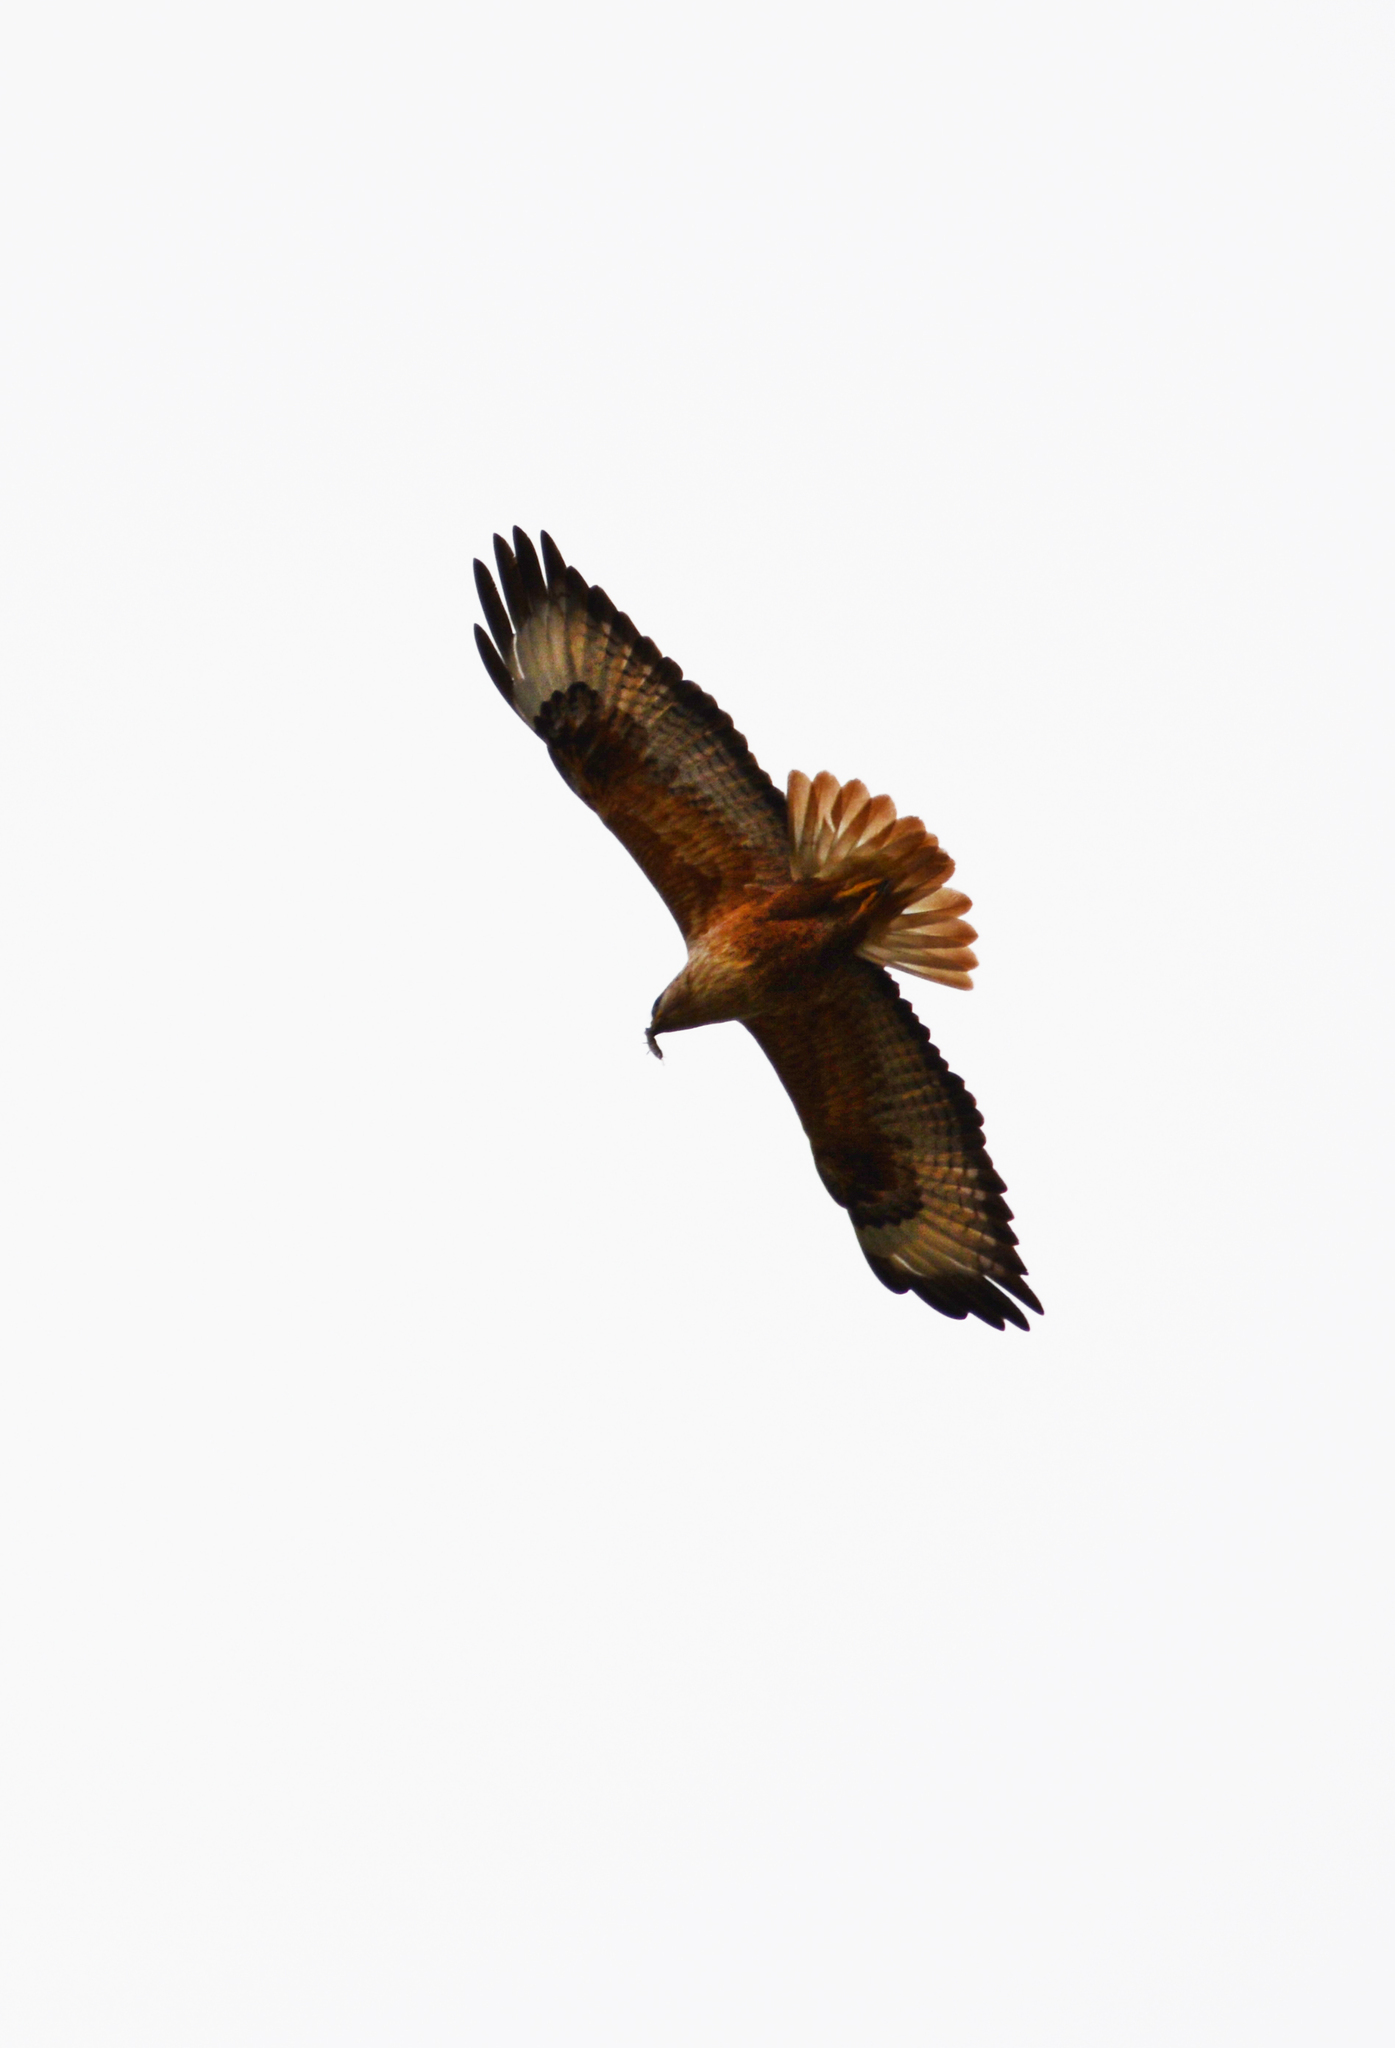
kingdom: Animalia
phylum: Chordata
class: Aves
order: Accipitriformes
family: Accipitridae
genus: Buteo
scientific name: Buteo rufinus
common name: Long-legged buzzard
